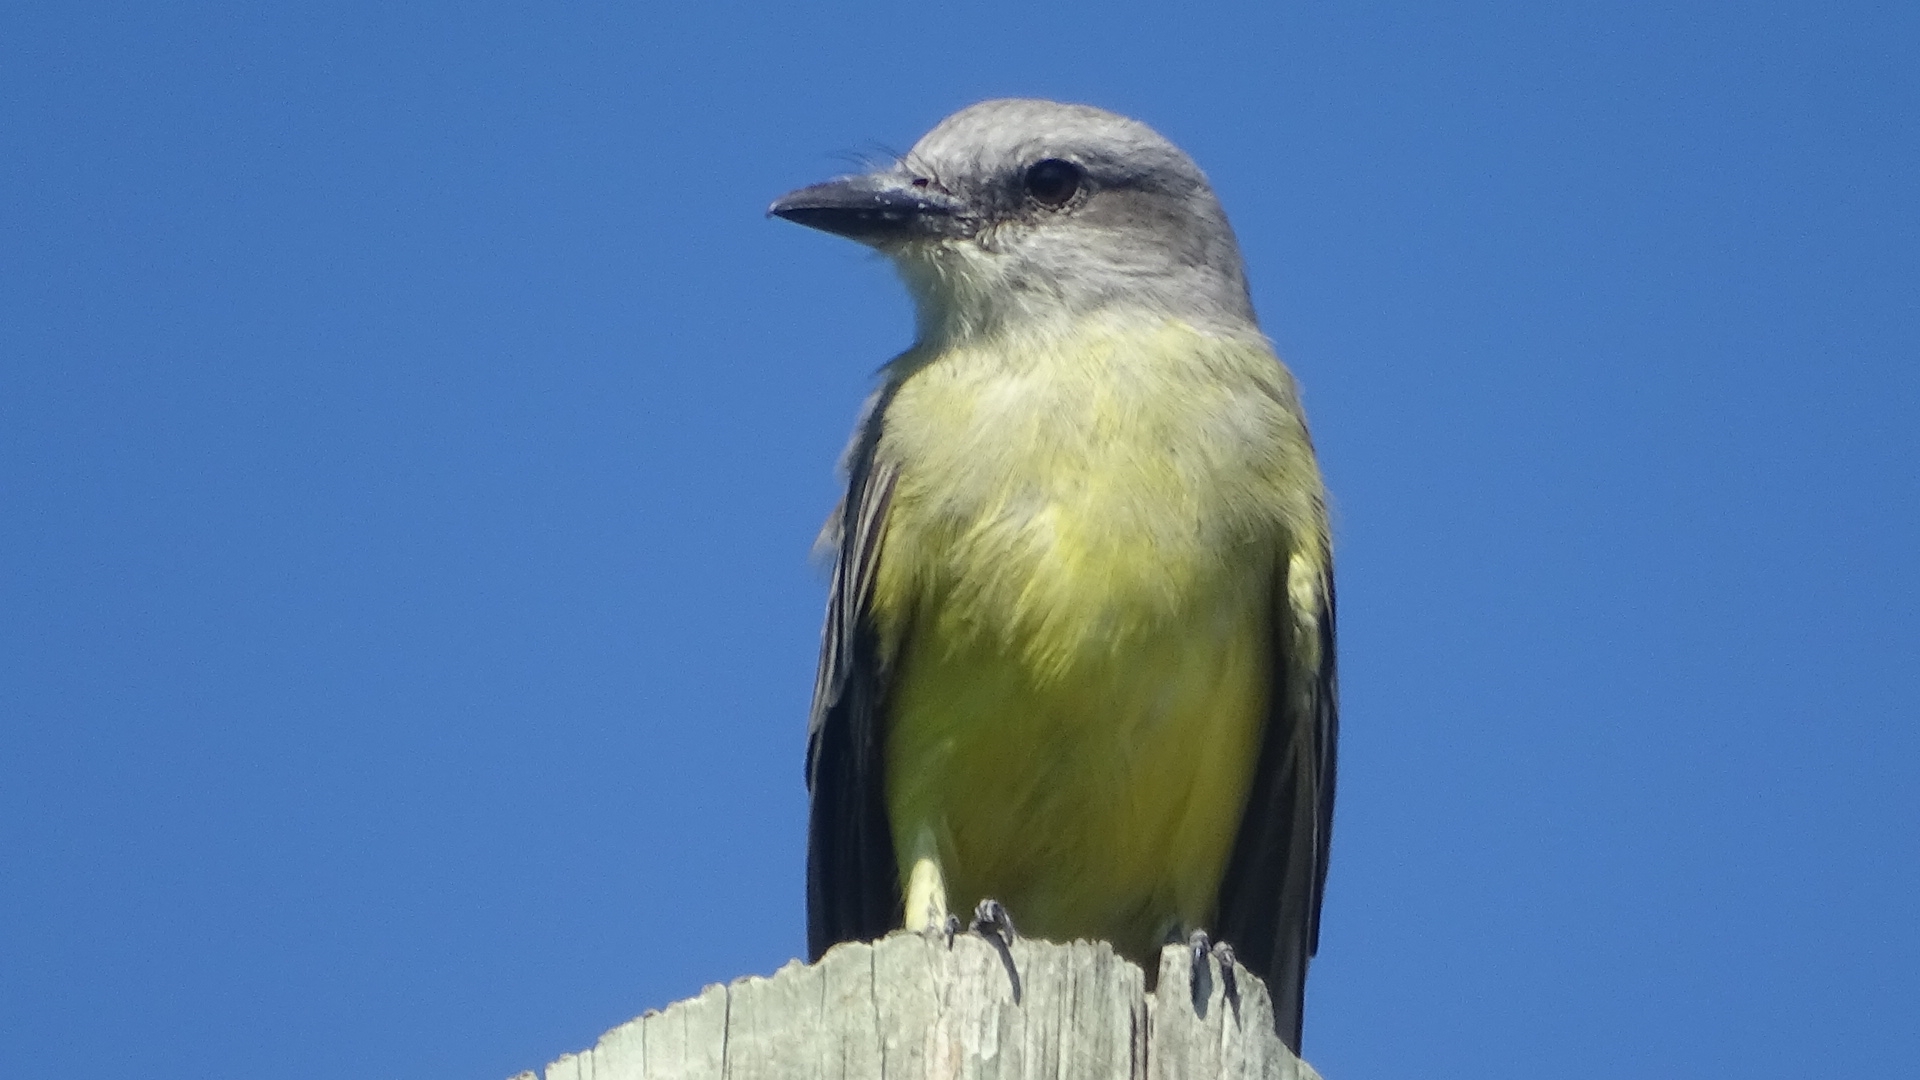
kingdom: Animalia
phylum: Chordata
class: Aves
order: Passeriformes
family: Tyrannidae
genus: Tyrannus
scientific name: Tyrannus melancholicus
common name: Tropical kingbird
